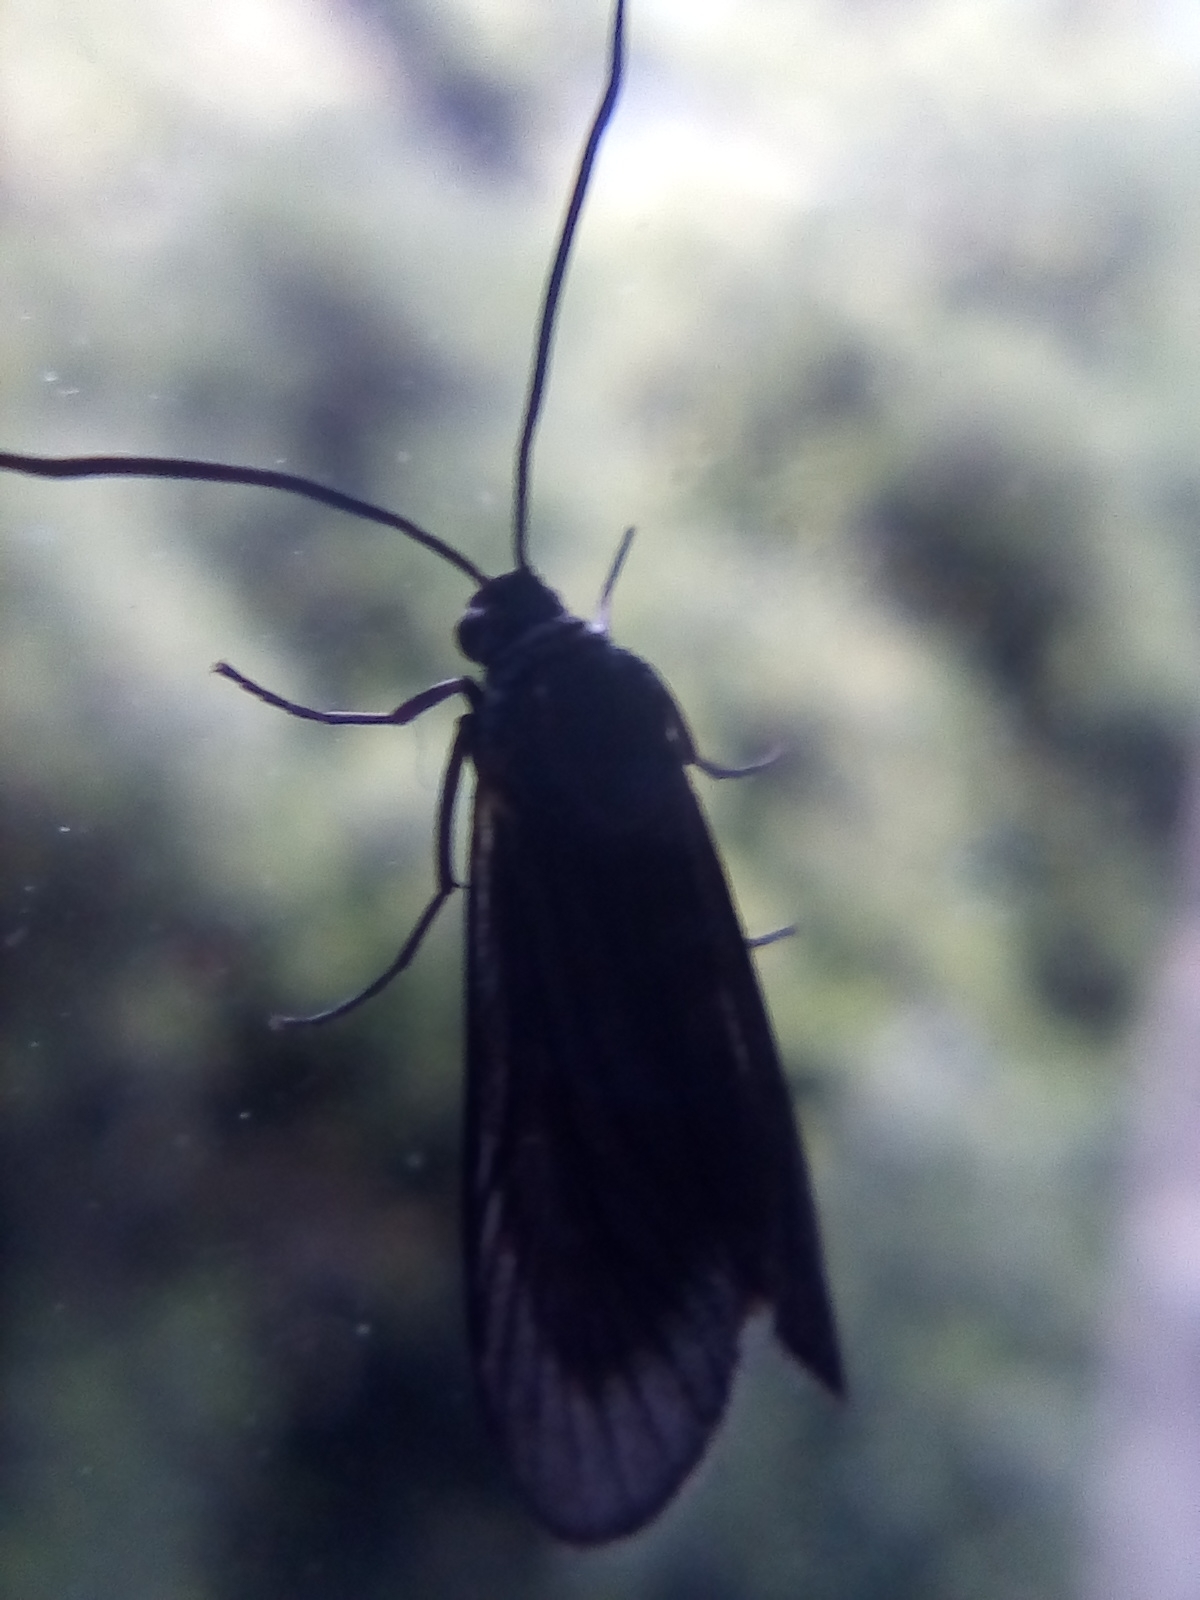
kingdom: Animalia
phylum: Arthropoda
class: Insecta
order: Lepidoptera
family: Zygaenidae
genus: Artona
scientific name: Artona martini
